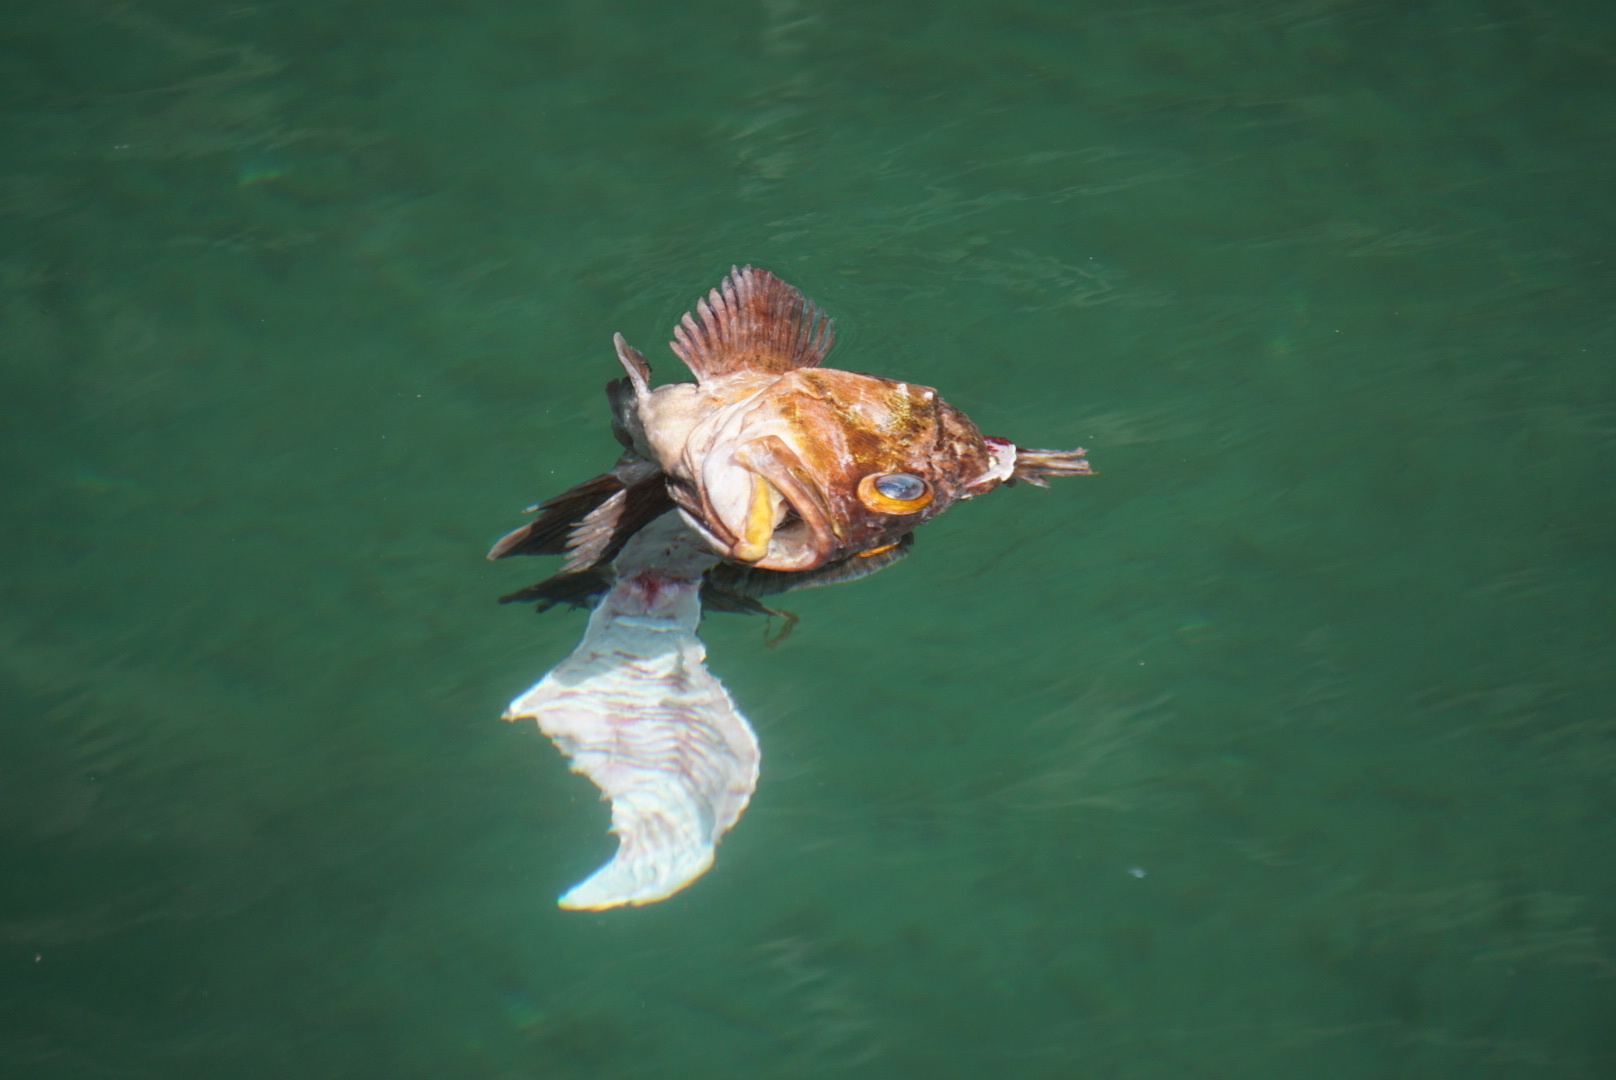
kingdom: Animalia
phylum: Chordata
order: Scorpaeniformes
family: Sebastidae
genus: Sebastes
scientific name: Sebastes caurinus
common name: Copper rockfish
